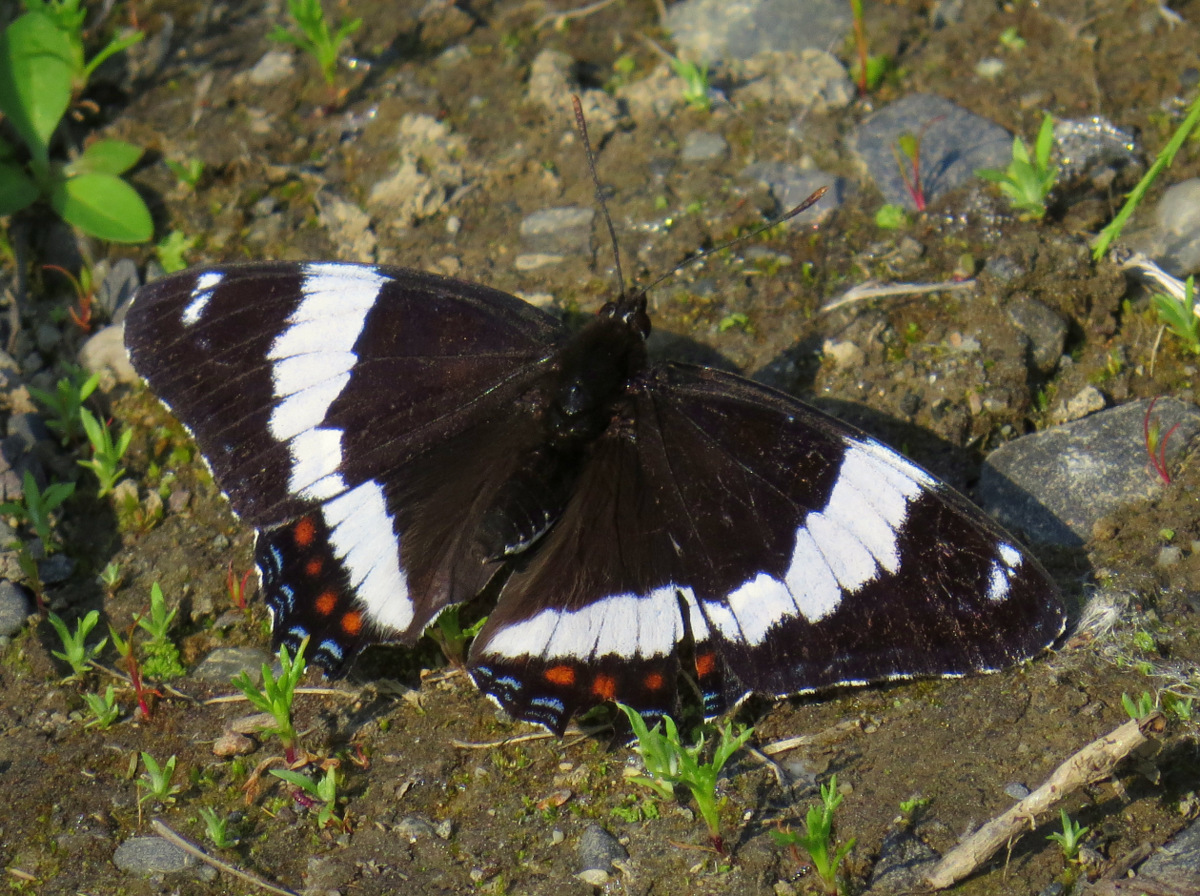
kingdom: Animalia
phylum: Arthropoda
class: Insecta
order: Lepidoptera
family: Nymphalidae
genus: Limenitis
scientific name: Limenitis arthemis
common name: Red-spotted admiral
